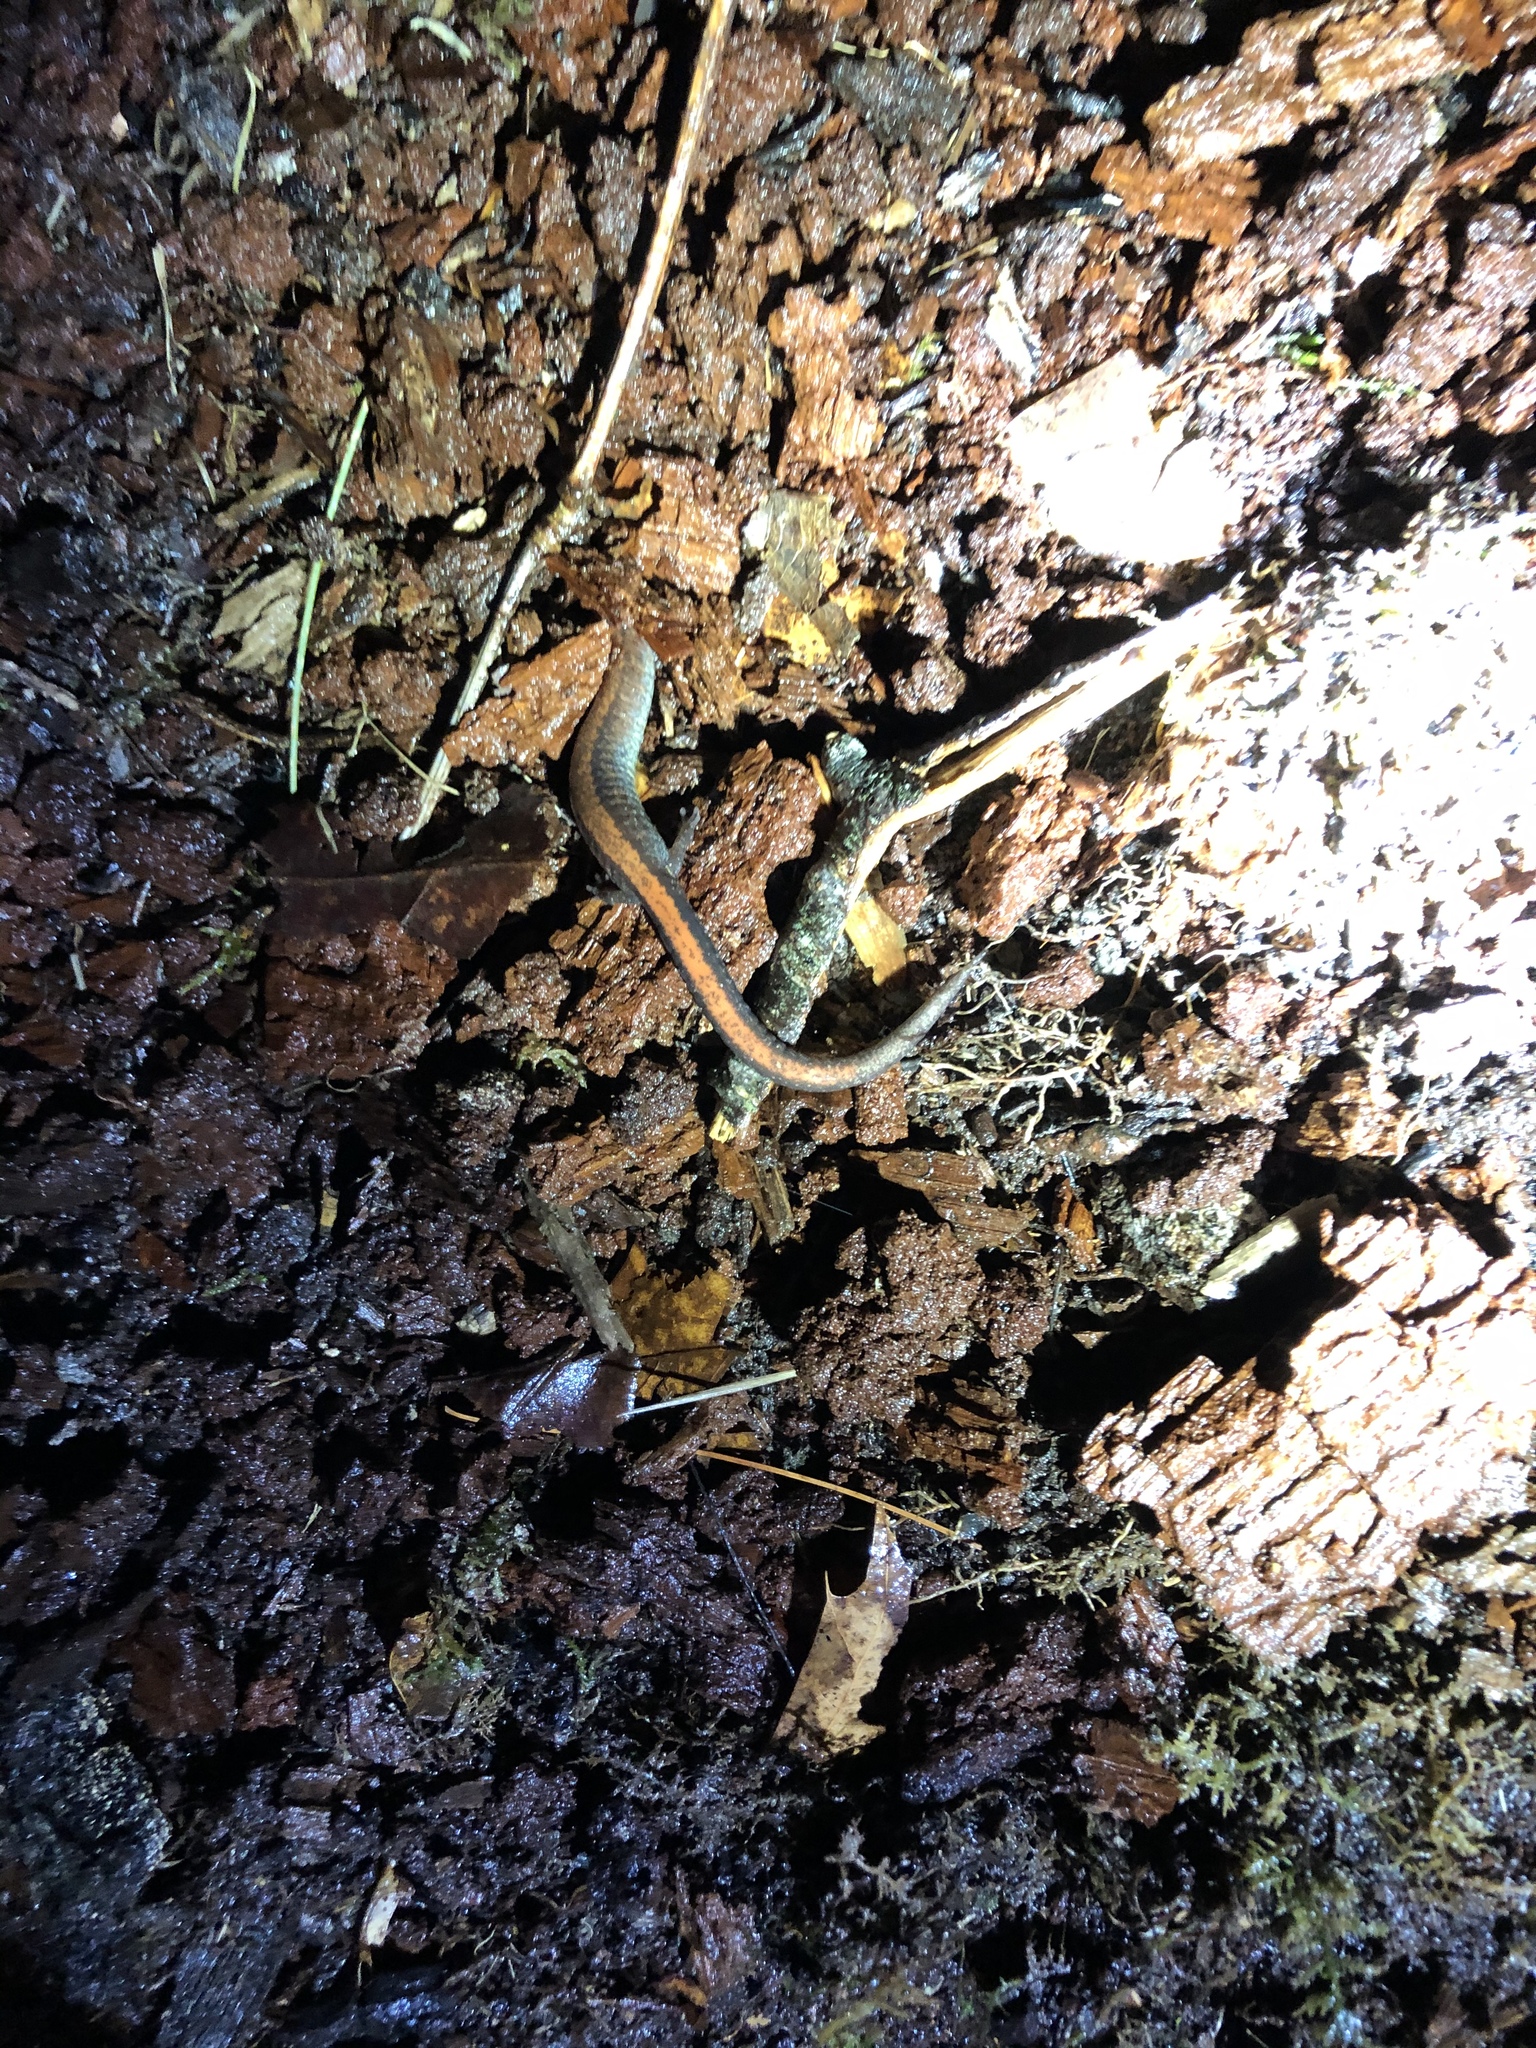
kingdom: Animalia
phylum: Chordata
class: Amphibia
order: Caudata
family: Plethodontidae
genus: Plethodon
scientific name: Plethodon cinereus
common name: Redback salamander
